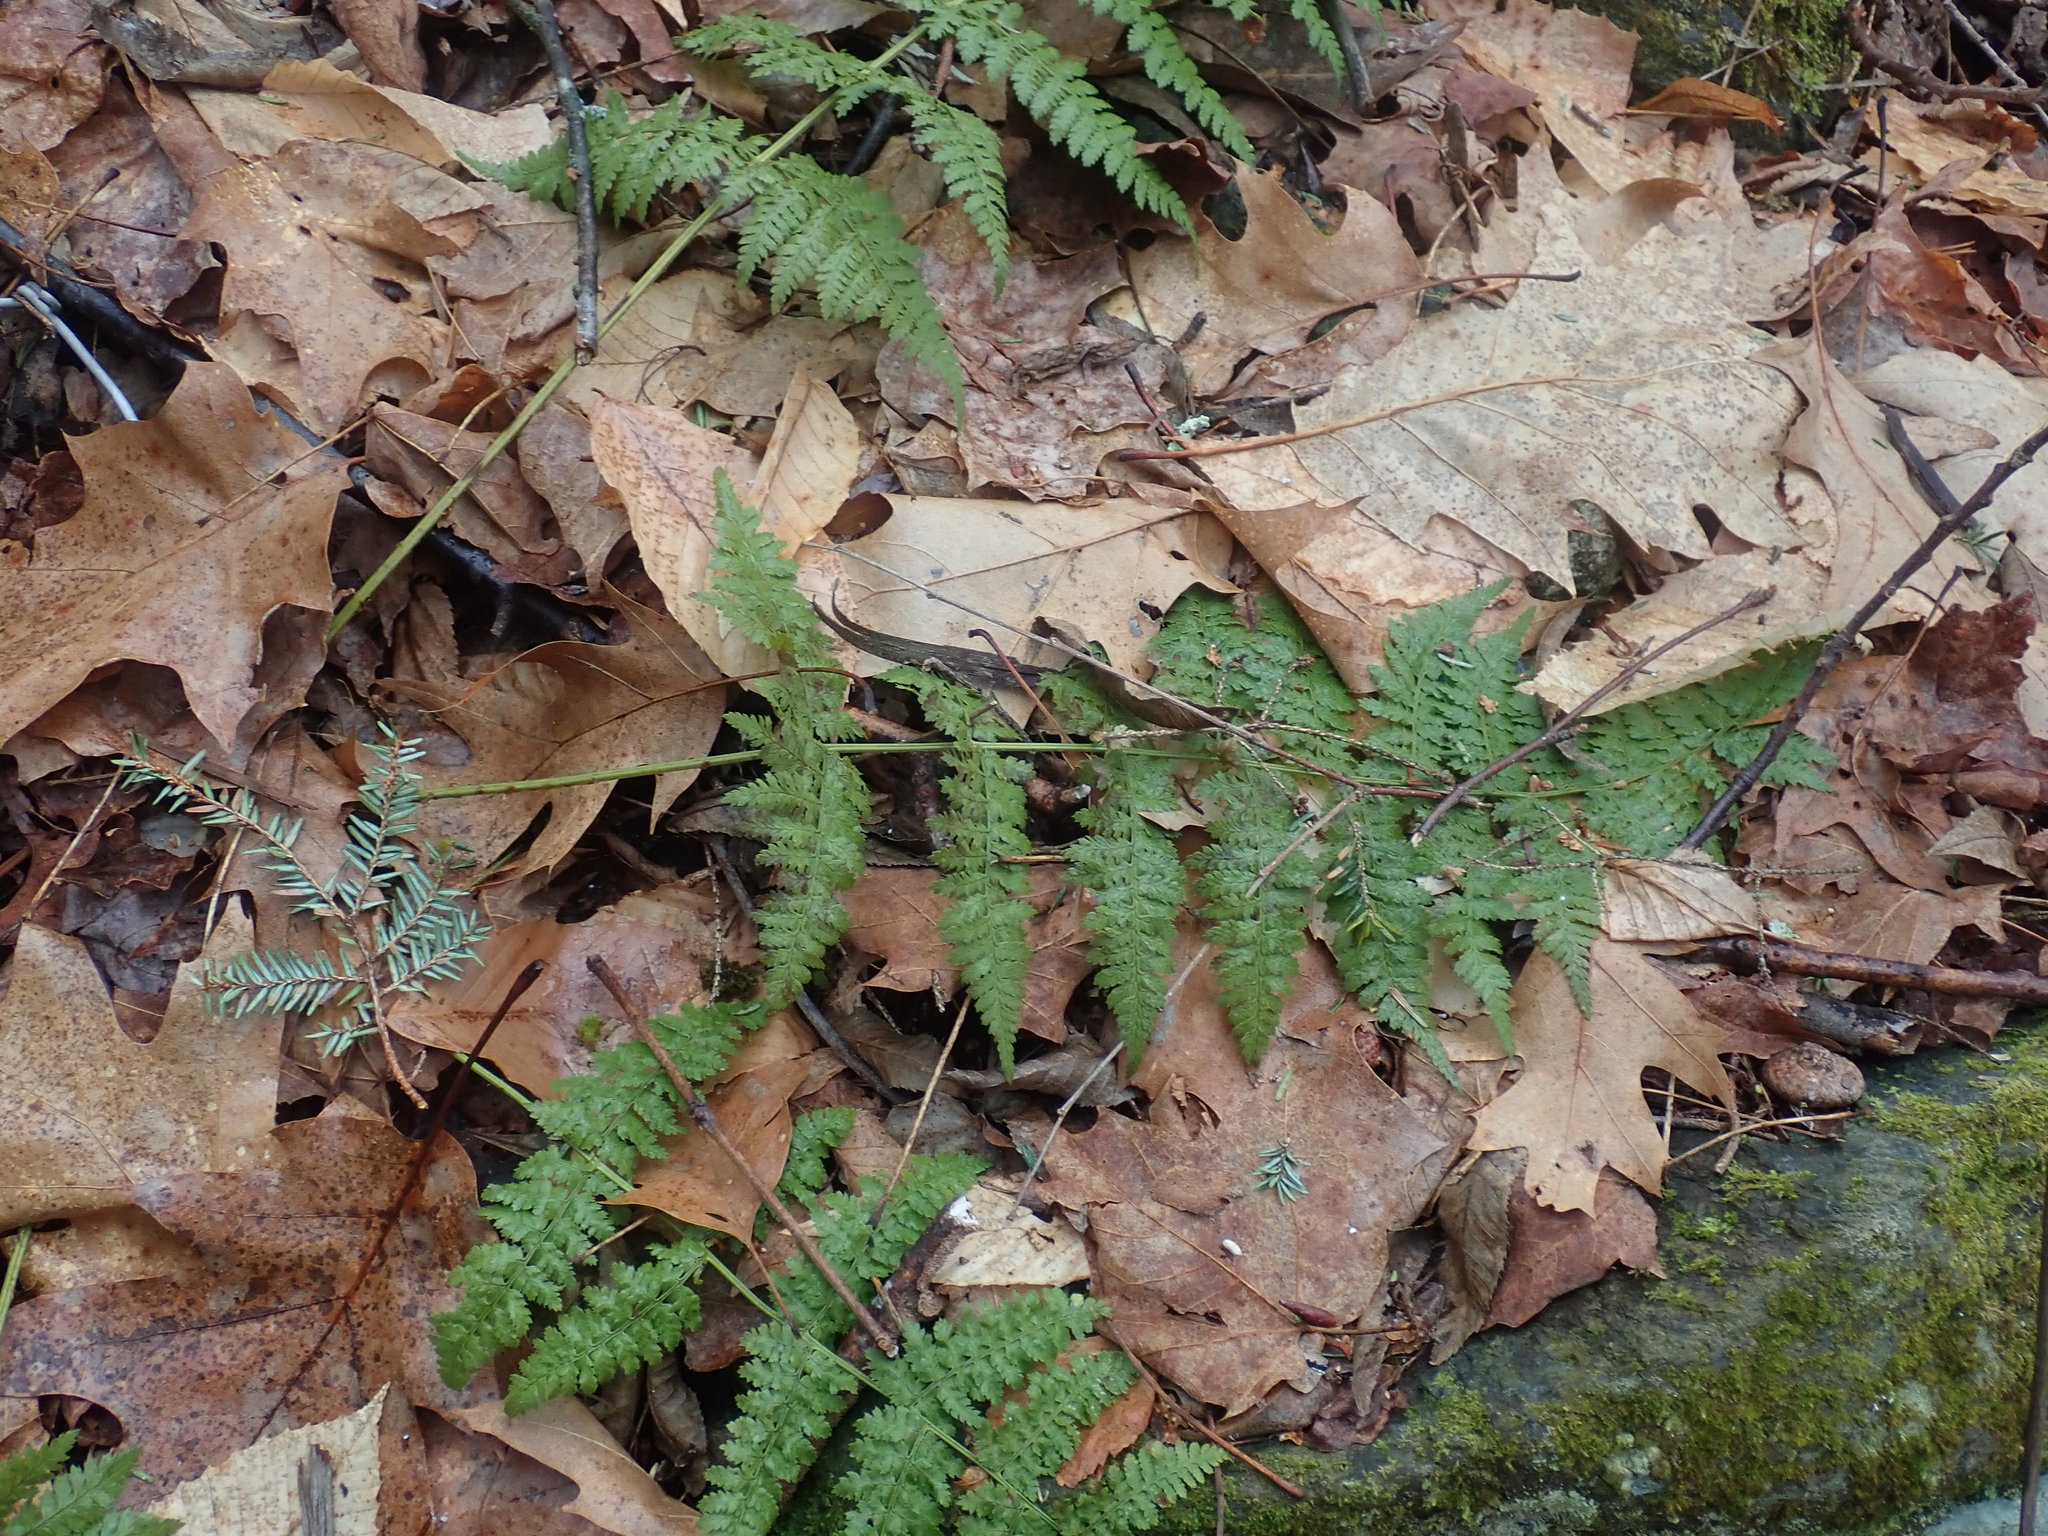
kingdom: Plantae
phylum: Tracheophyta
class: Polypodiopsida
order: Polypodiales
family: Dryopteridaceae
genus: Dryopteris
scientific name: Dryopteris intermedia
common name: Evergreen wood fern
